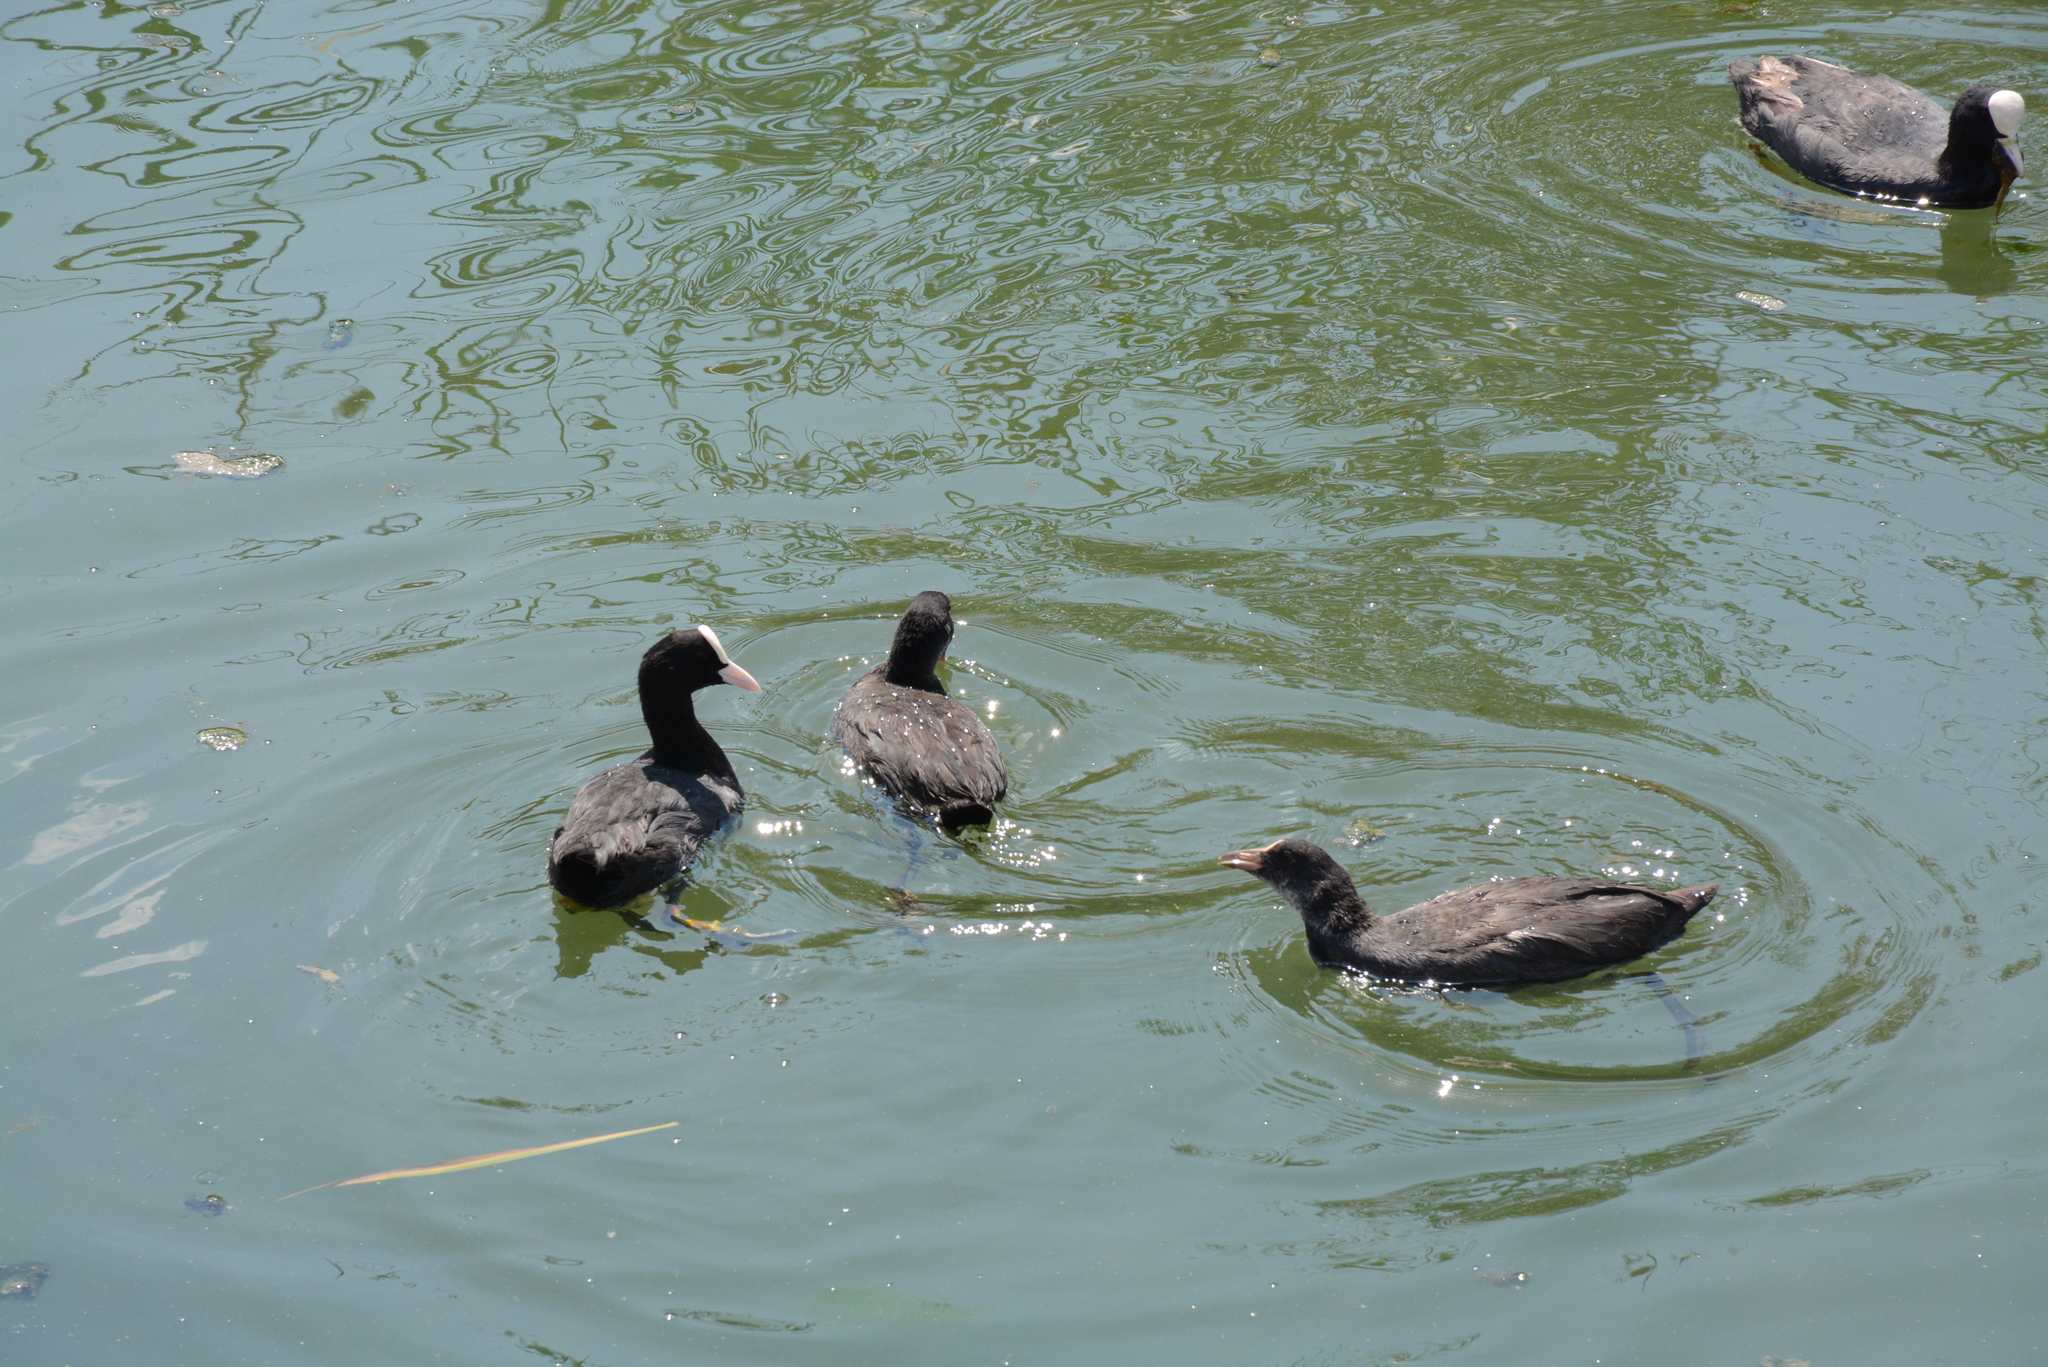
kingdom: Animalia
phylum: Chordata
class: Aves
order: Gruiformes
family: Rallidae
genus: Fulica
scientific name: Fulica atra
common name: Eurasian coot
